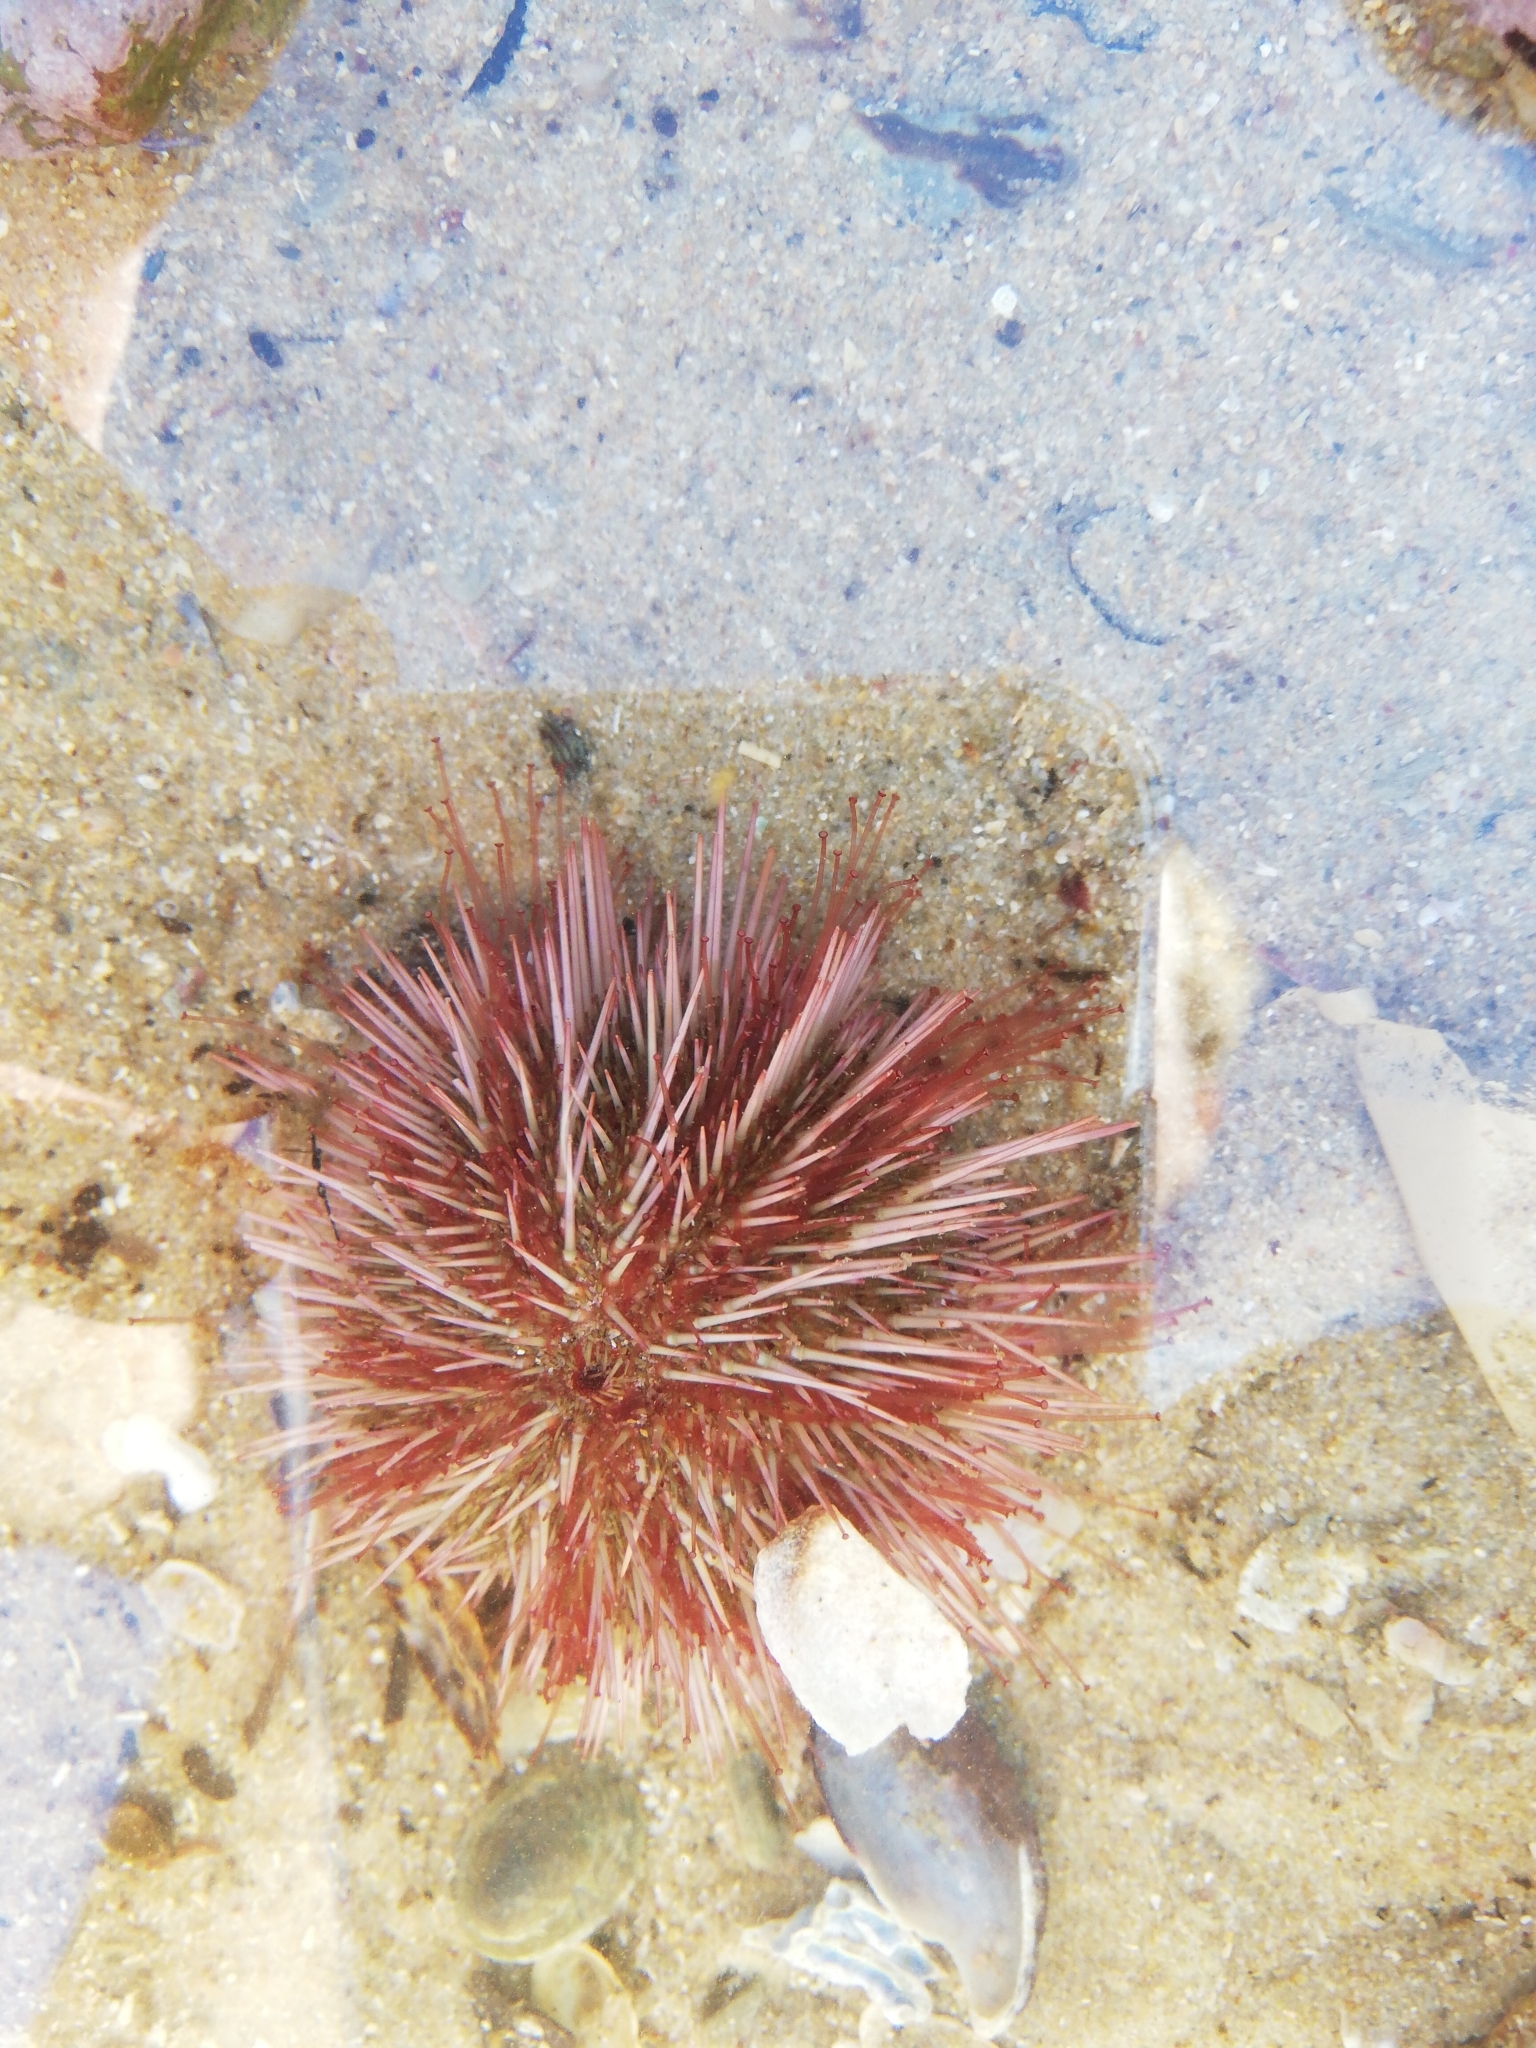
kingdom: Animalia
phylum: Echinodermata
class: Echinoidea
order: Camarodonta
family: Parechinidae
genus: Parechinus
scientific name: Parechinus angulosus
